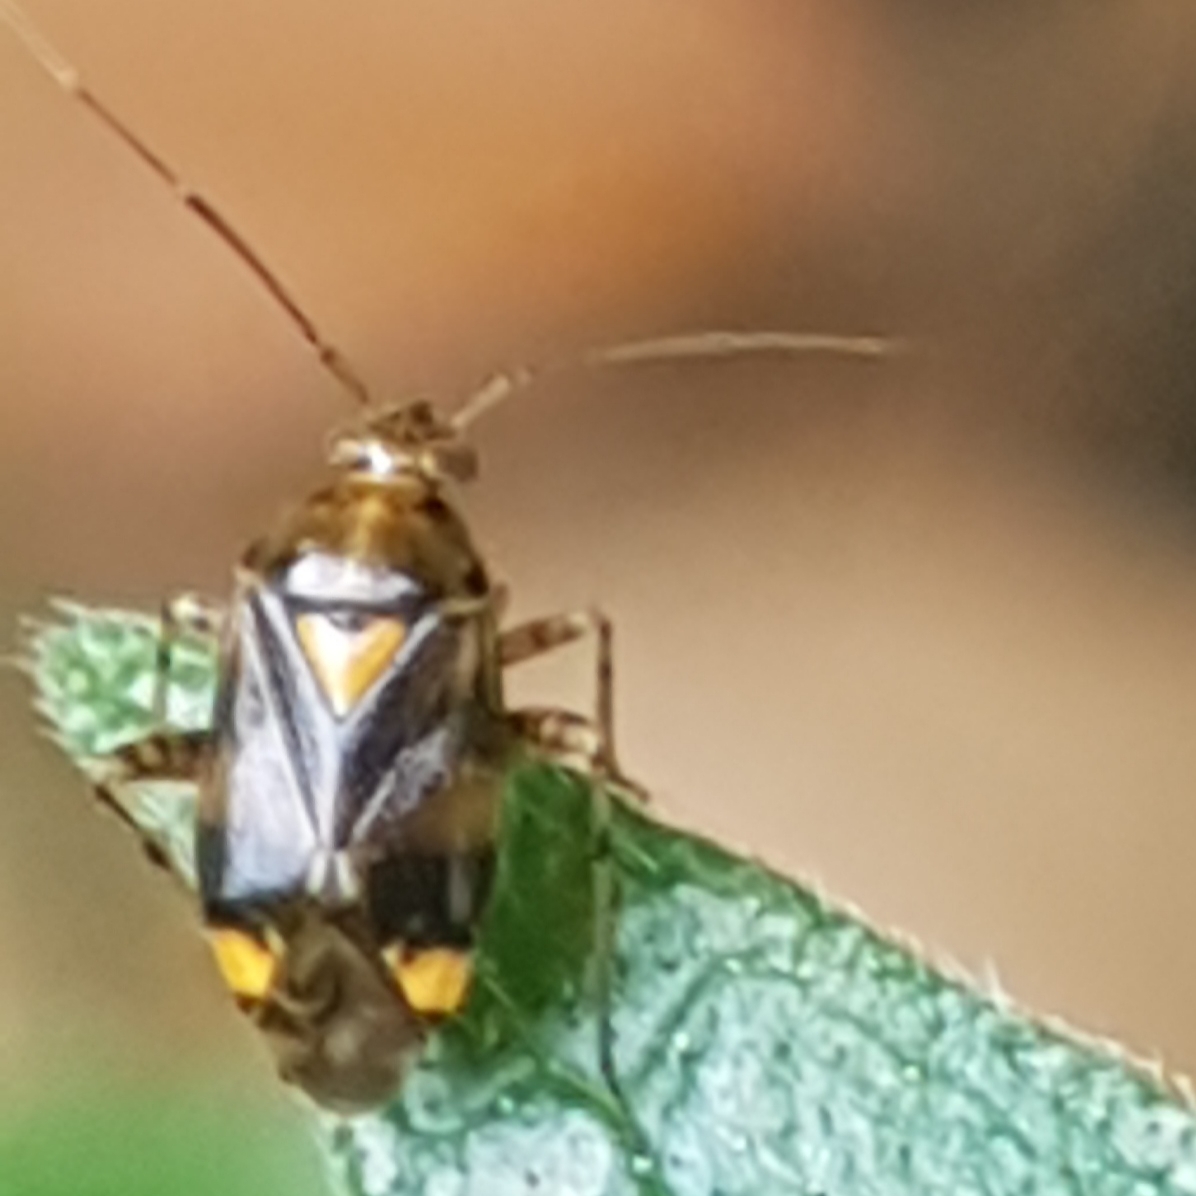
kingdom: Animalia
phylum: Arthropoda
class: Insecta
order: Hemiptera
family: Miridae
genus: Liocoris
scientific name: Liocoris tripustulatus
